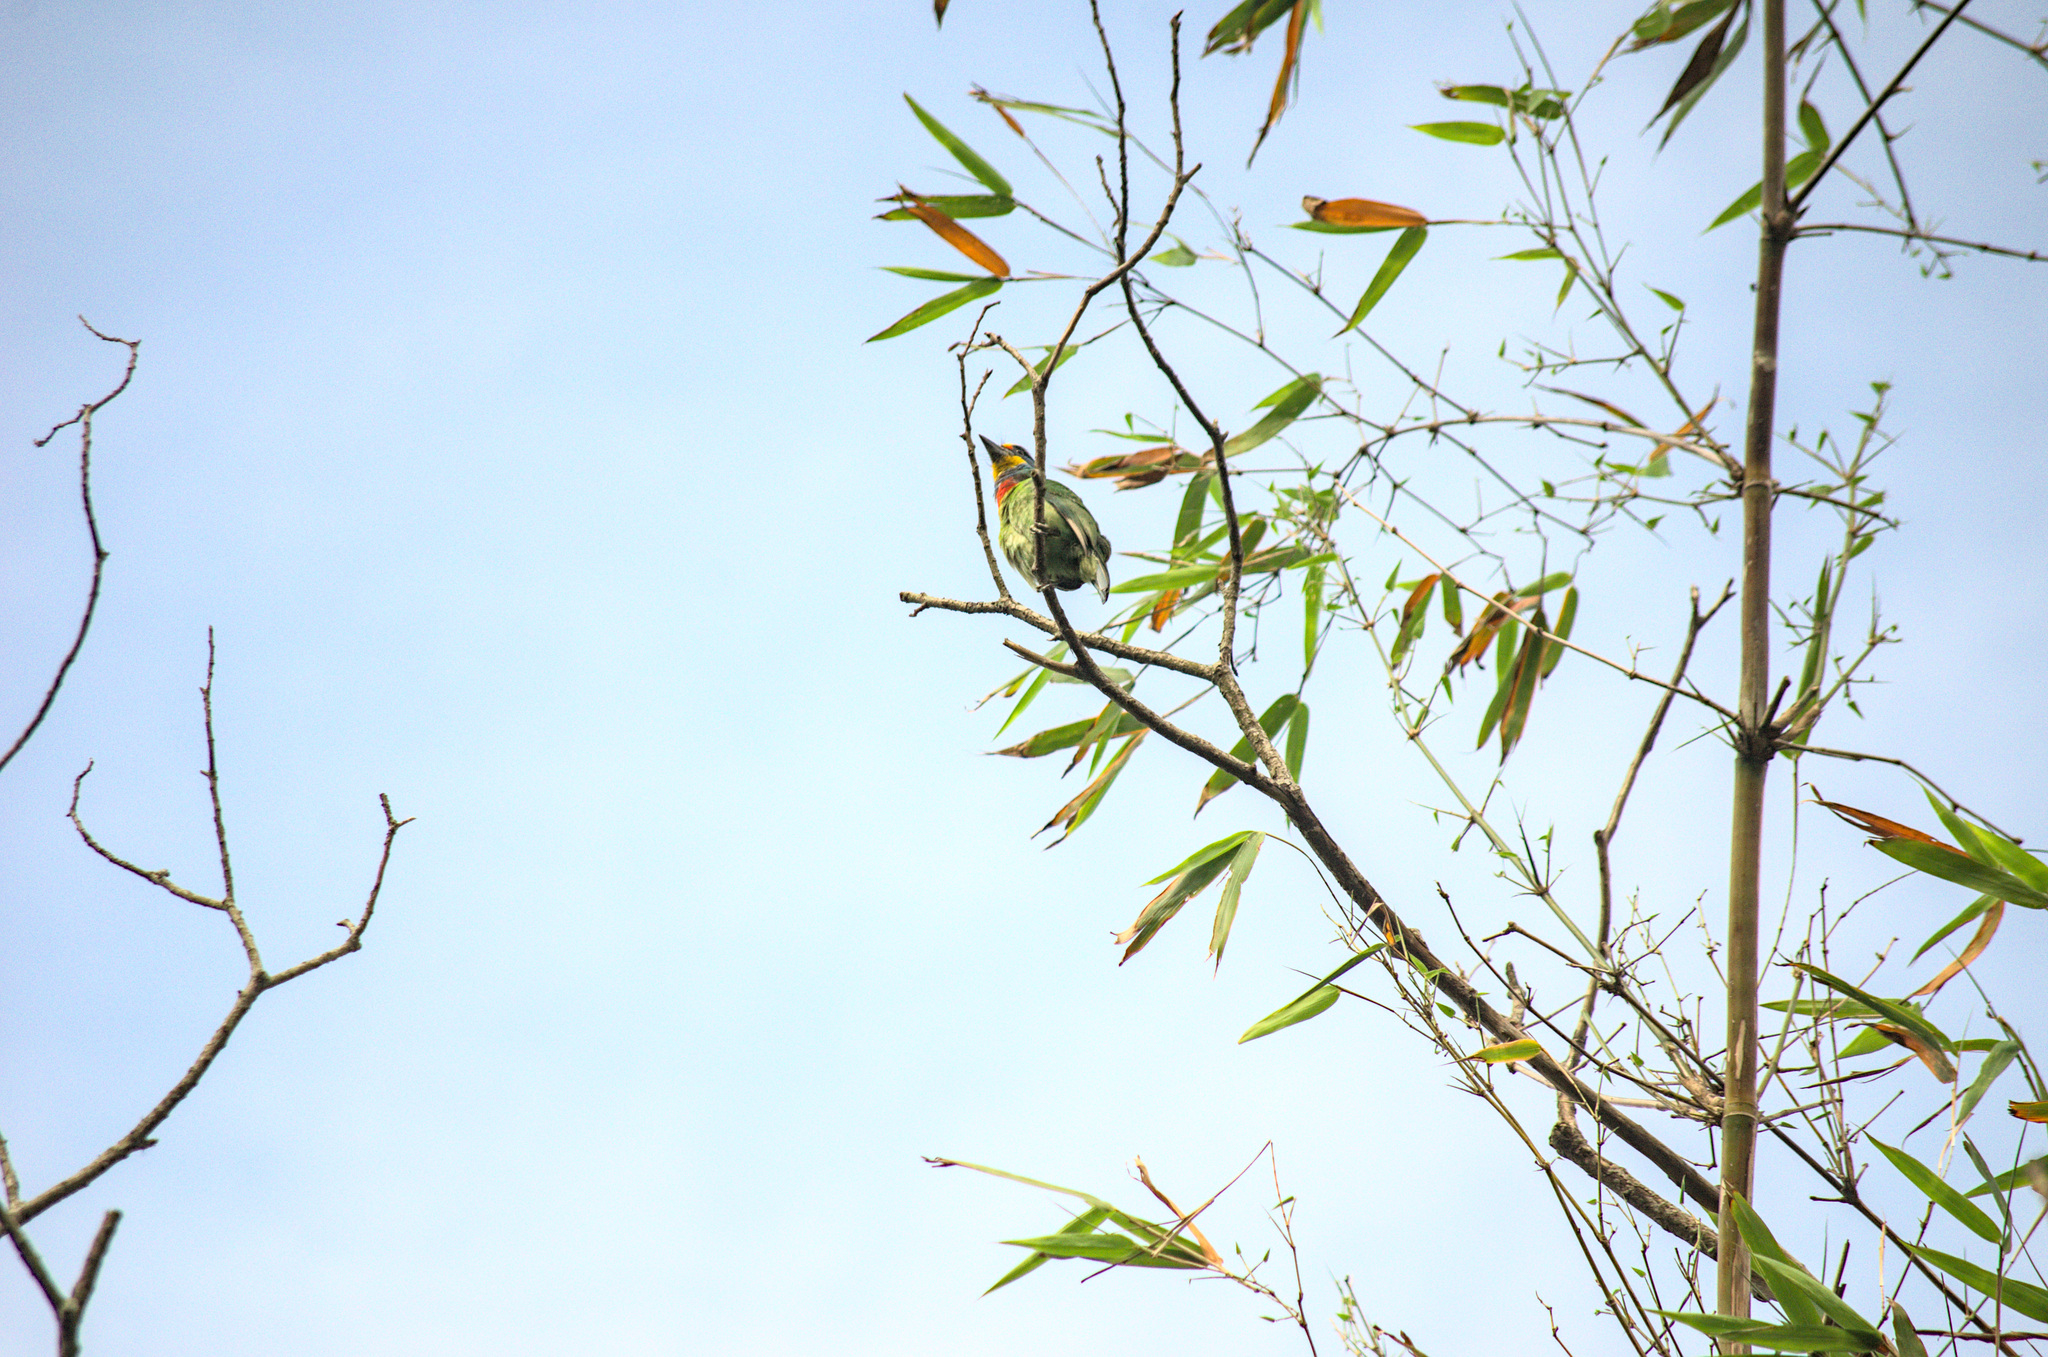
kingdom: Animalia
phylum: Chordata
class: Aves
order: Piciformes
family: Megalaimidae
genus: Psilopogon
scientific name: Psilopogon nuchalis
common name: Taiwan barbet
